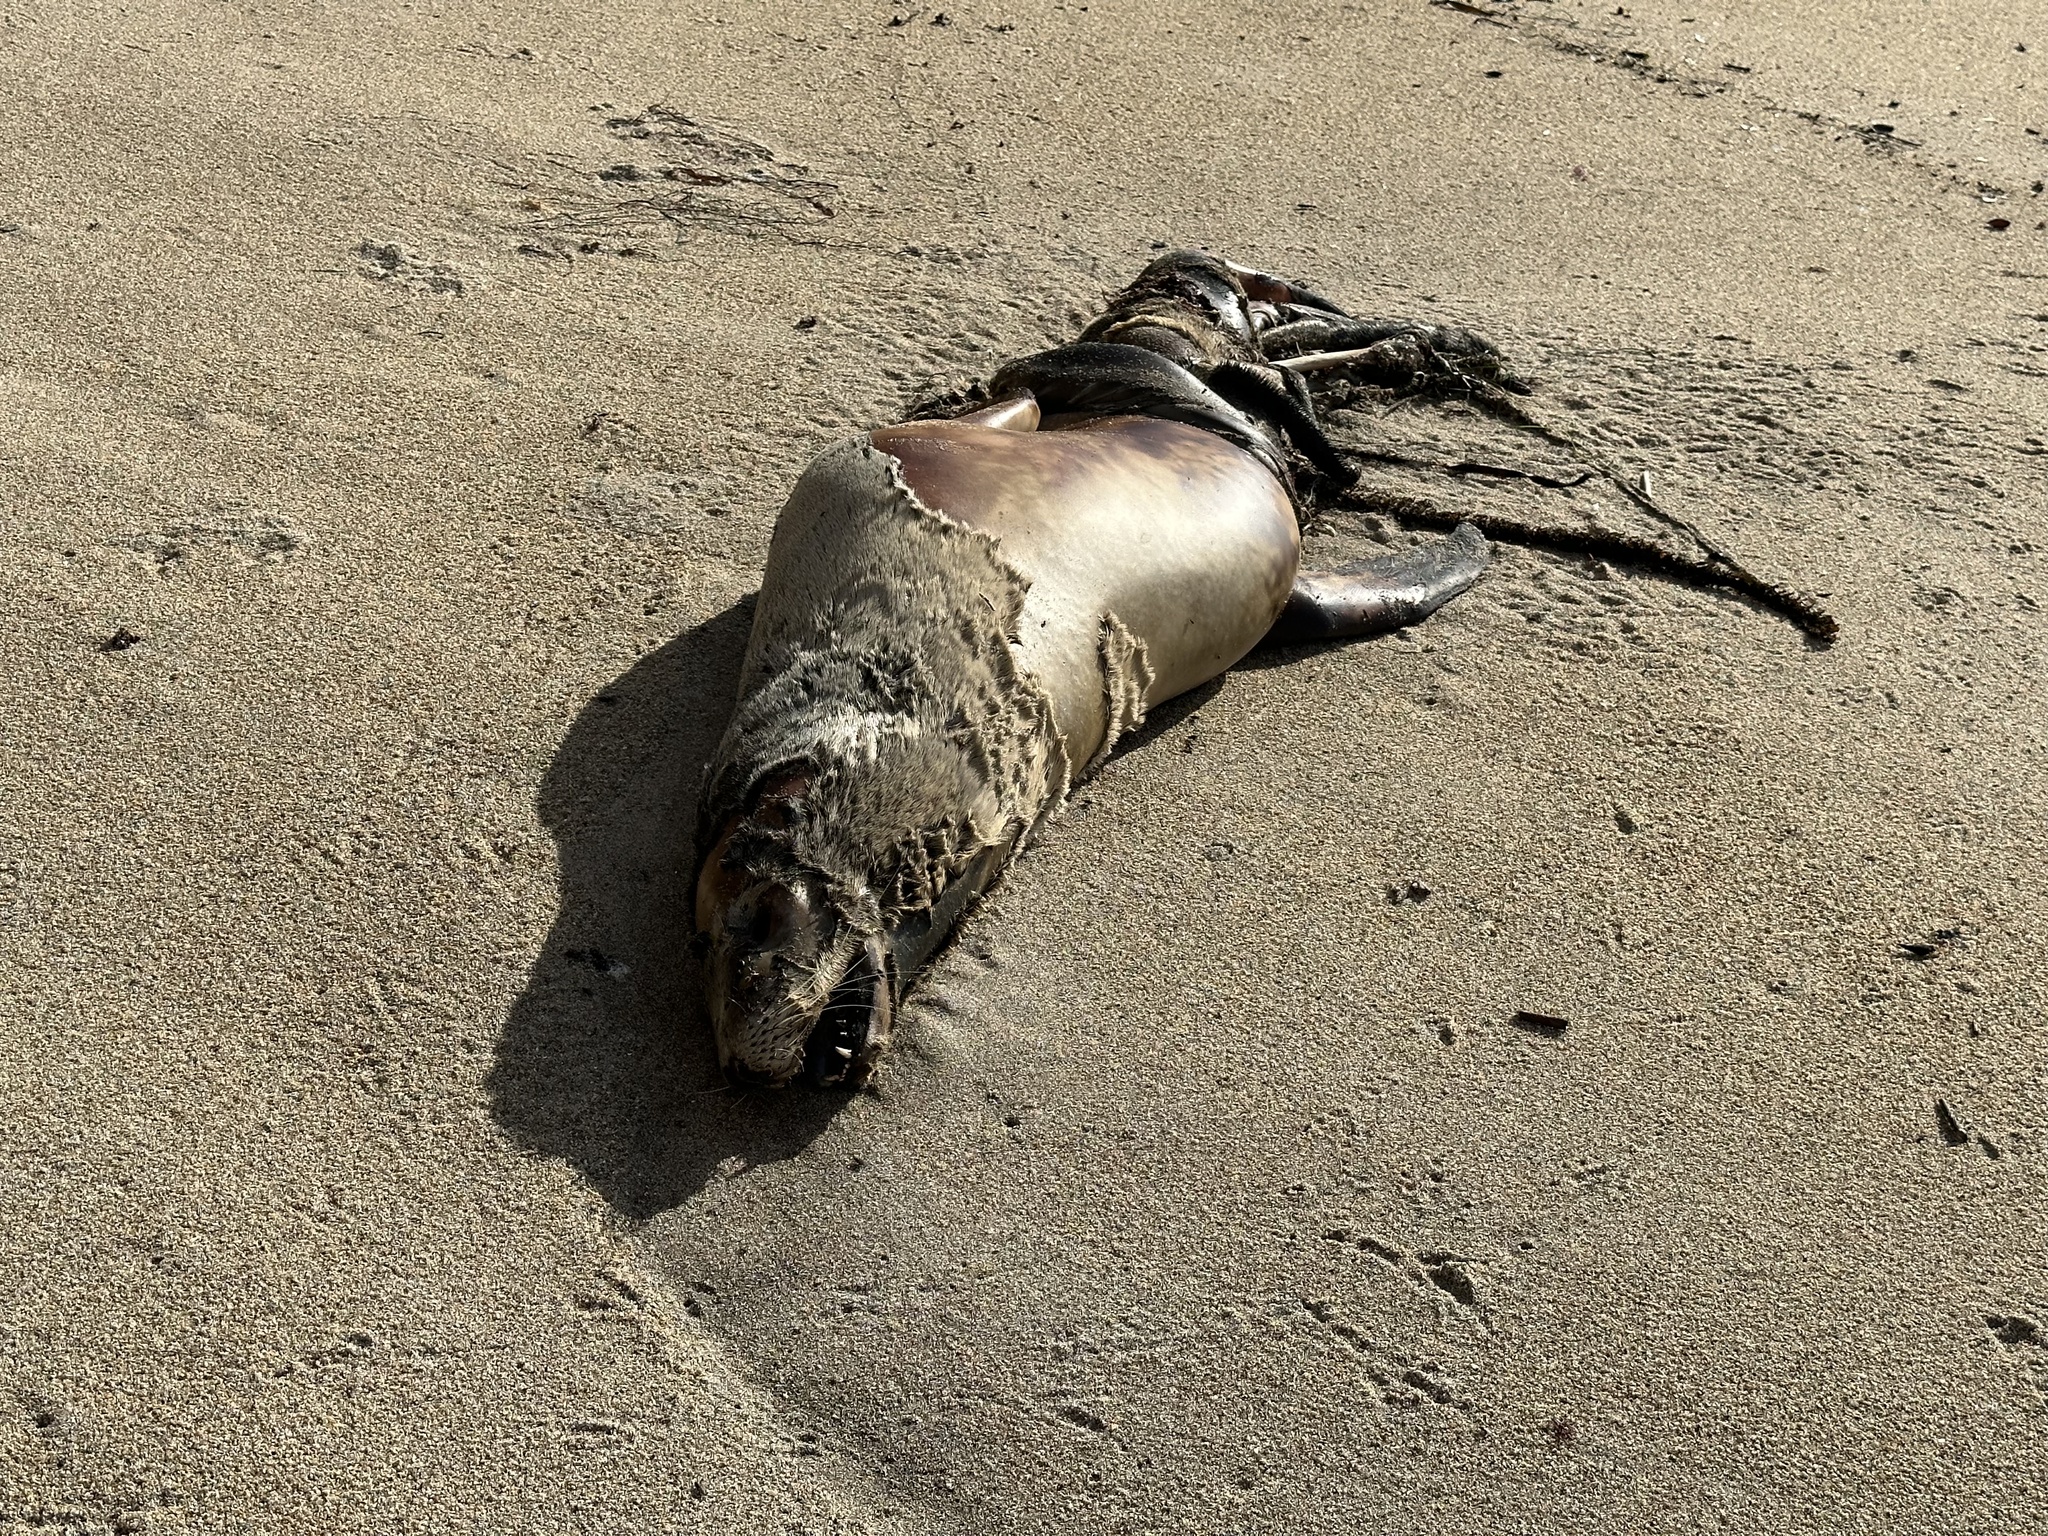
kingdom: Animalia
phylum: Chordata
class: Mammalia
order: Carnivora
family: Otariidae
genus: Zalophus
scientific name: Zalophus californianus
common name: California sea lion
